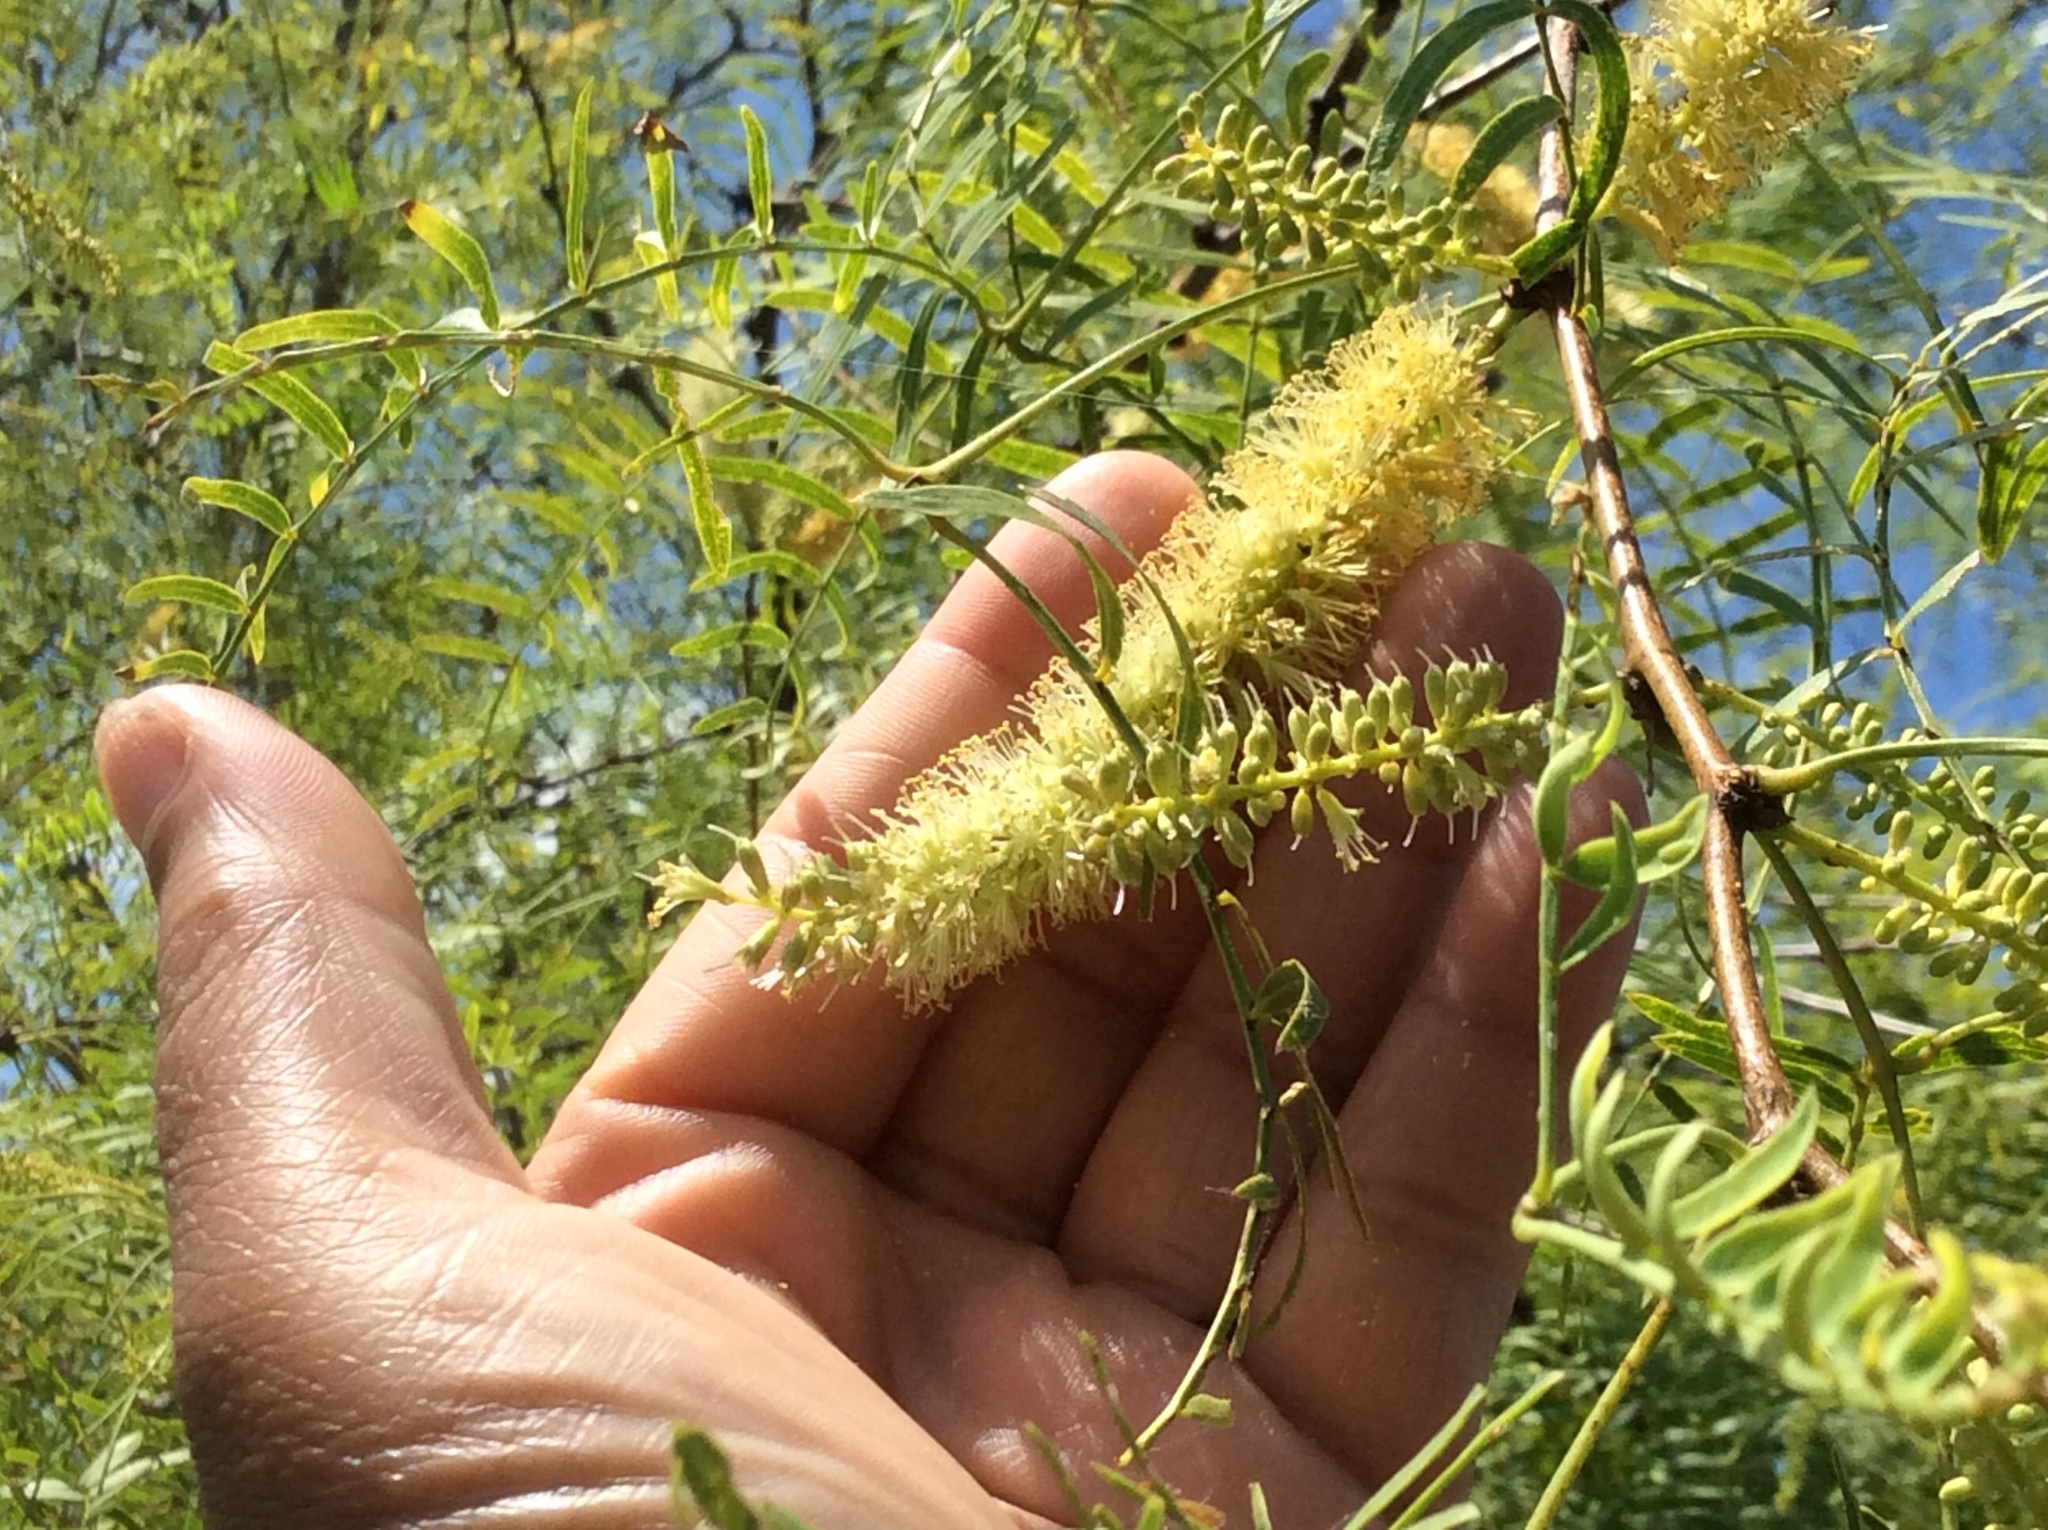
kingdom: Plantae
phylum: Tracheophyta
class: Magnoliopsida
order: Fabales
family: Fabaceae
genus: Prosopis
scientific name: Prosopis glandulosa
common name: Honey mesquite
